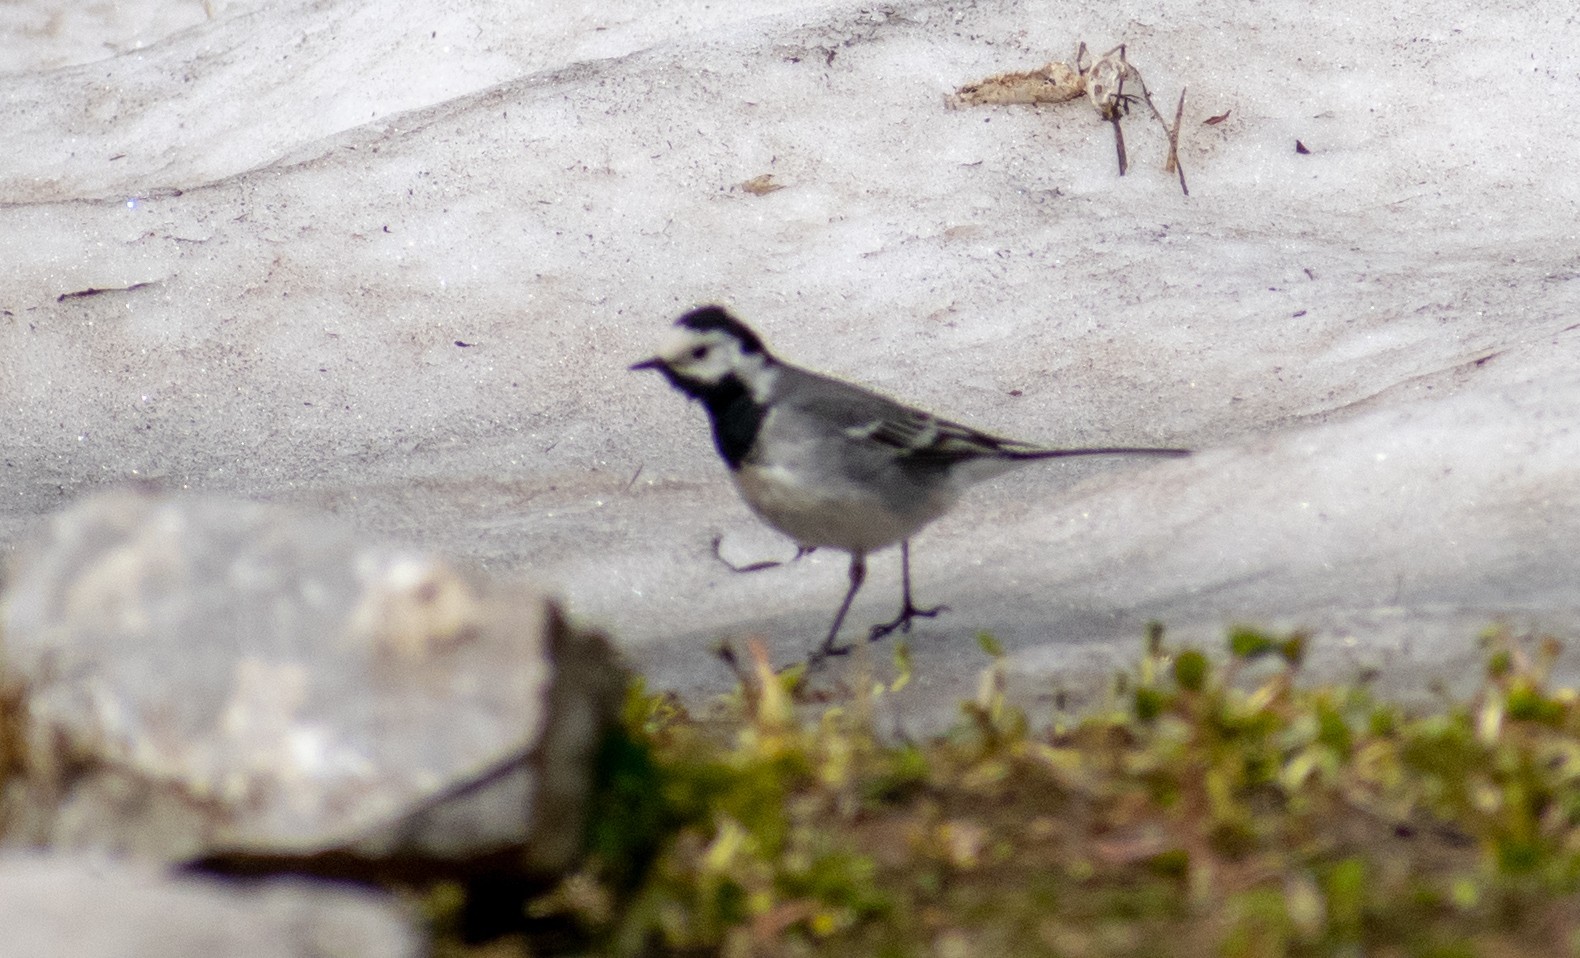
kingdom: Animalia
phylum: Chordata
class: Aves
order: Passeriformes
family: Motacillidae
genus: Motacilla
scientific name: Motacilla alba
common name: White wagtail
